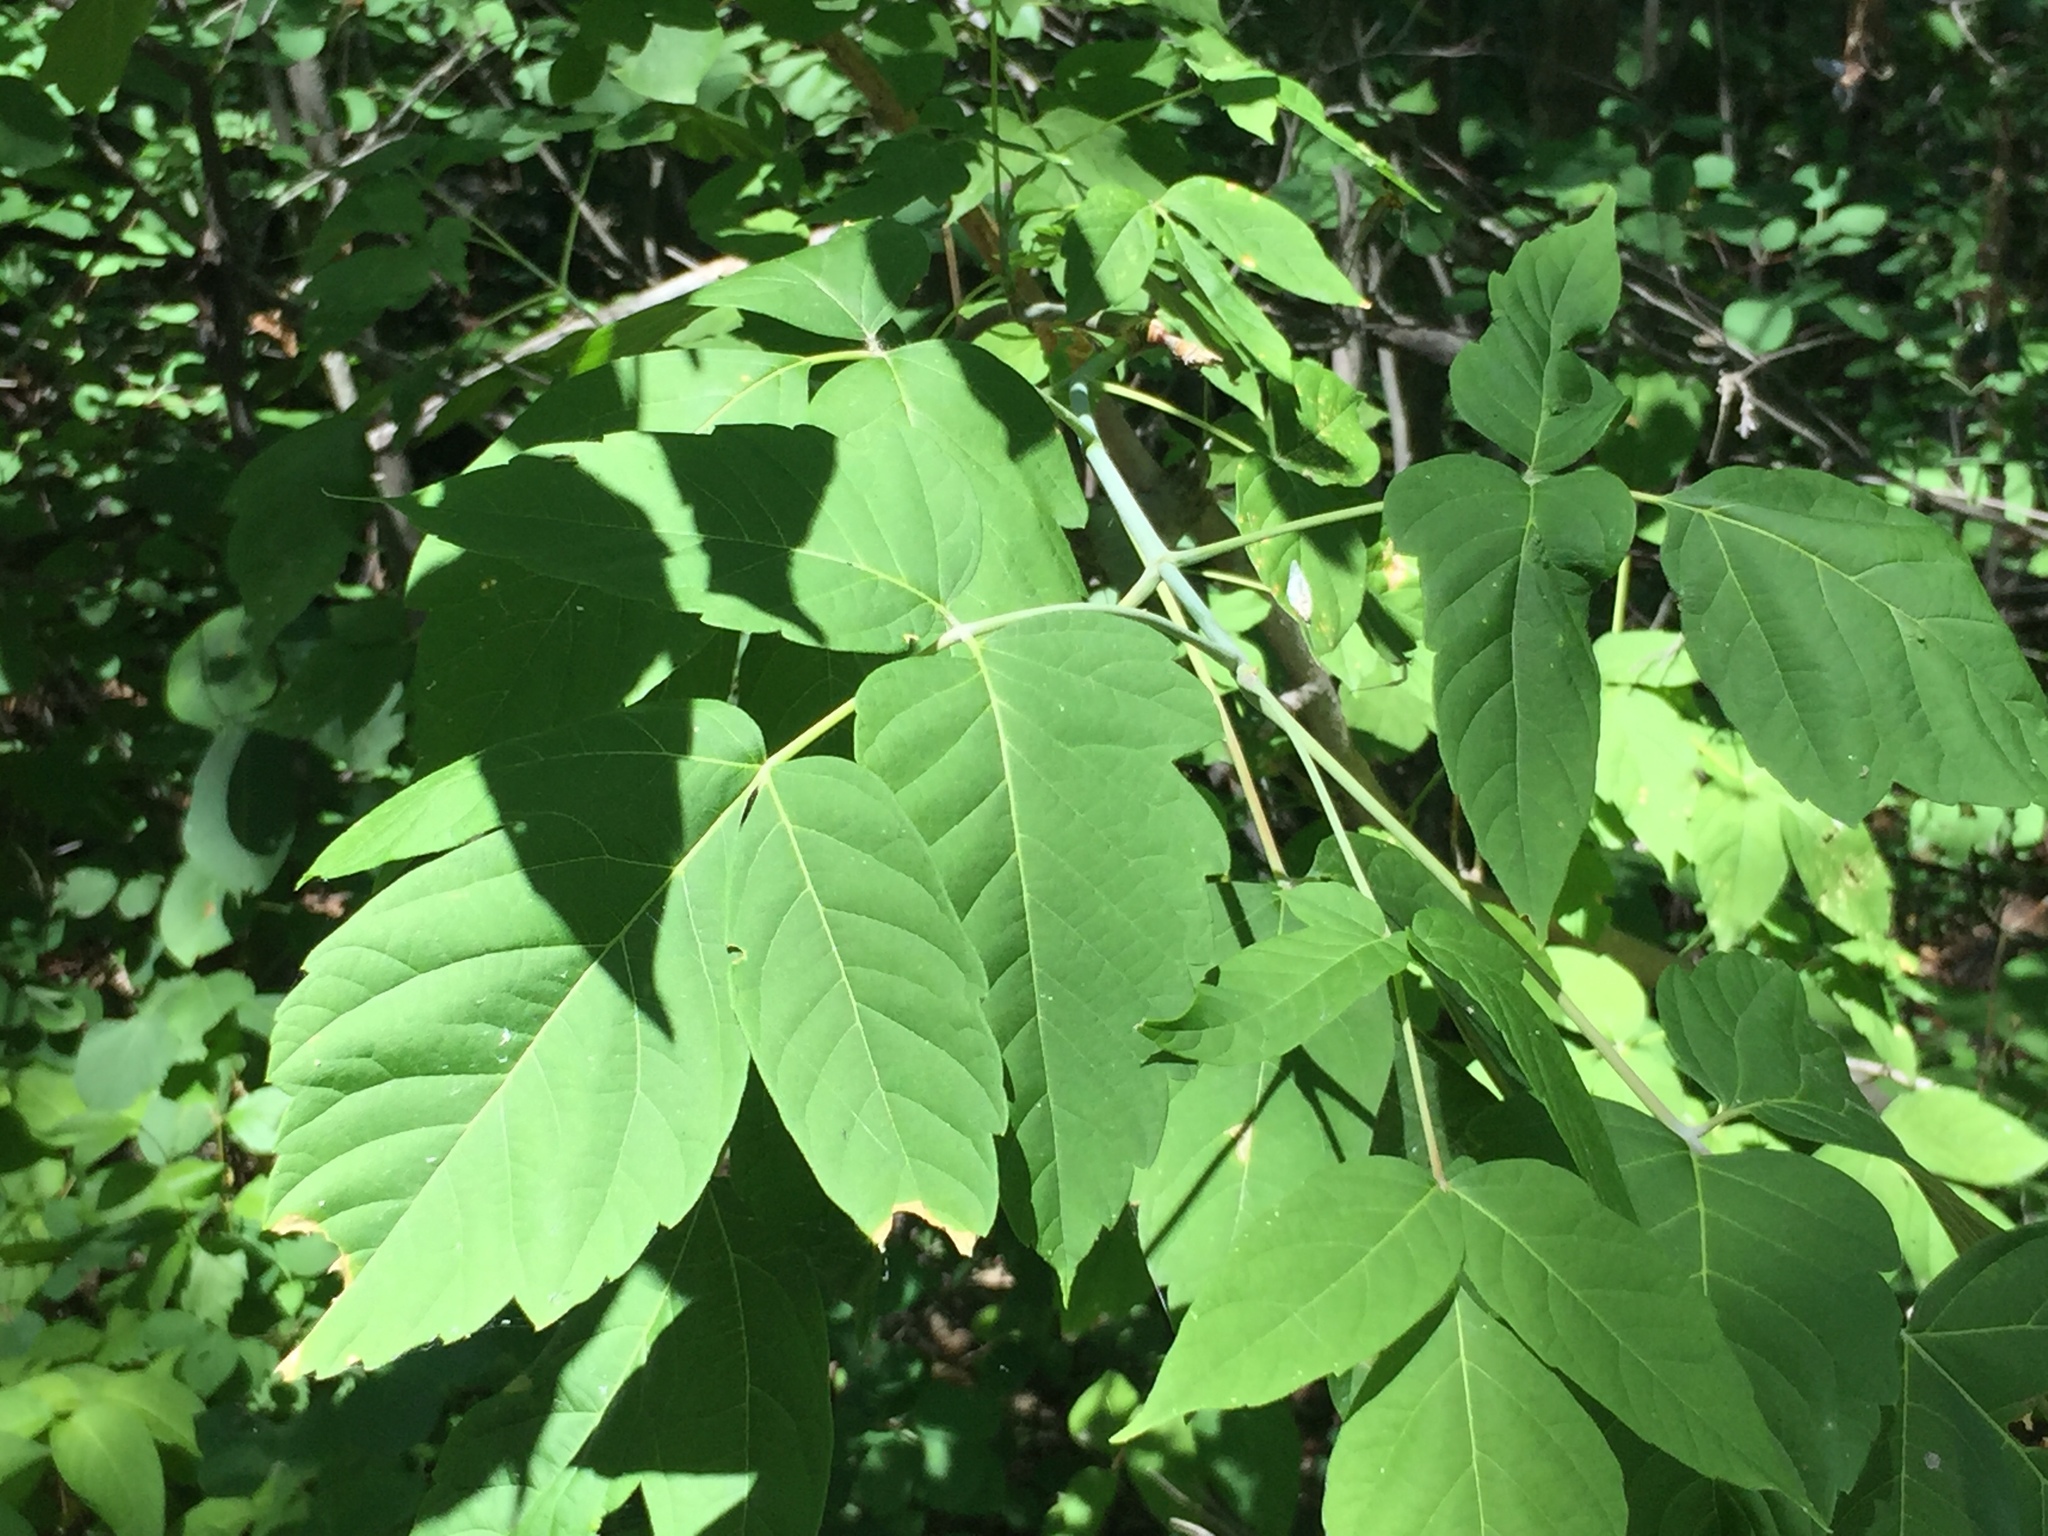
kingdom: Plantae
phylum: Tracheophyta
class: Magnoliopsida
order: Sapindales
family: Sapindaceae
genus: Acer
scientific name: Acer negundo
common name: Ashleaf maple
